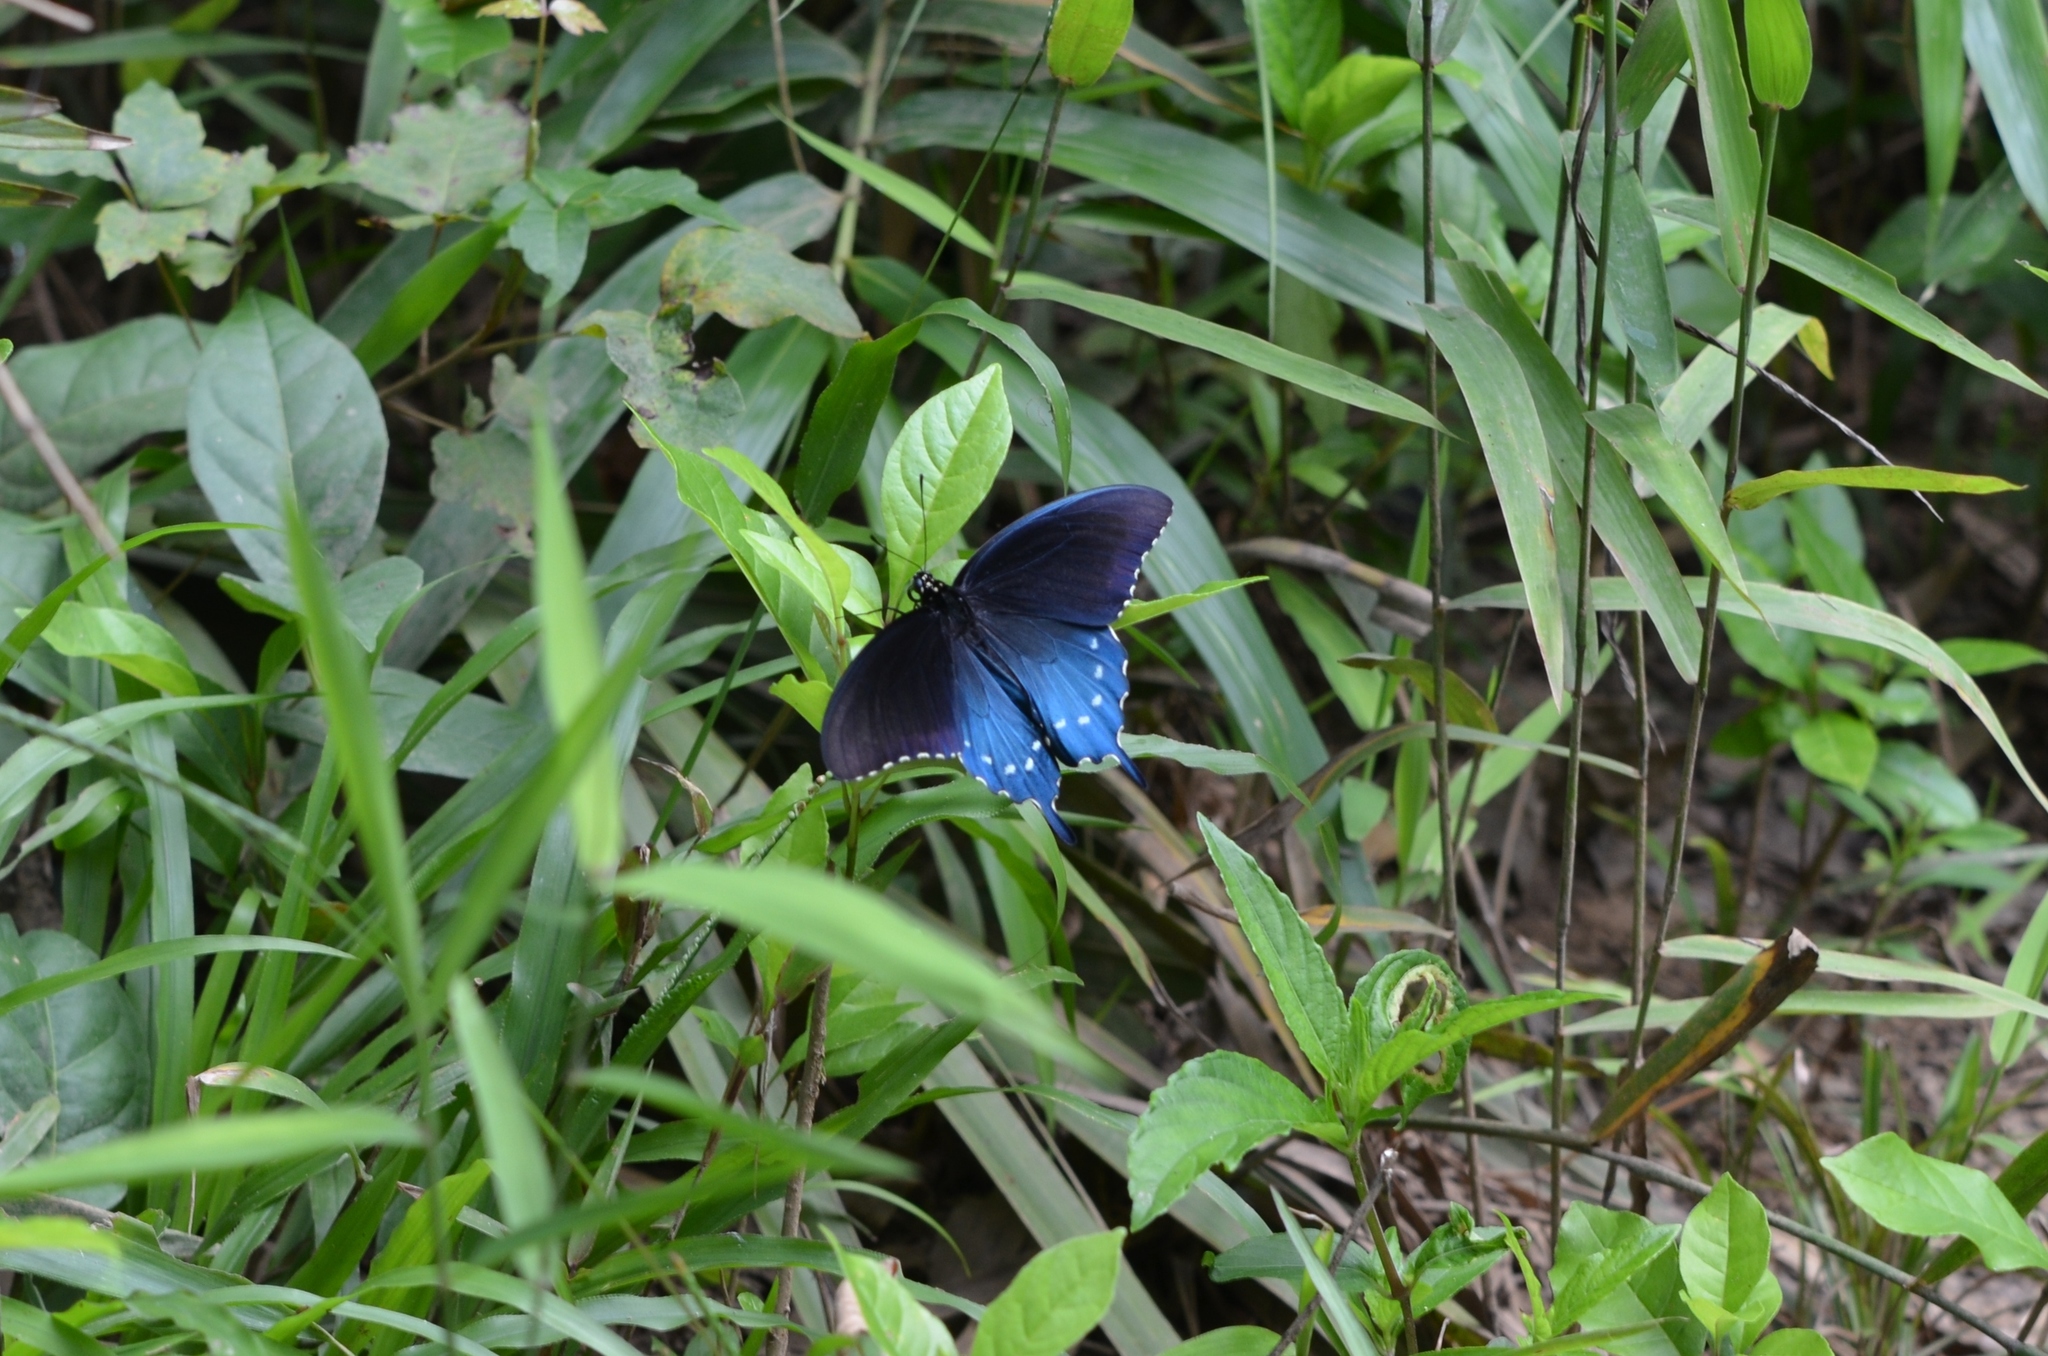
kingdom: Animalia
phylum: Arthropoda
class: Insecta
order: Lepidoptera
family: Papilionidae
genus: Battus
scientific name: Battus philenor
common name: Pipevine swallowtail
